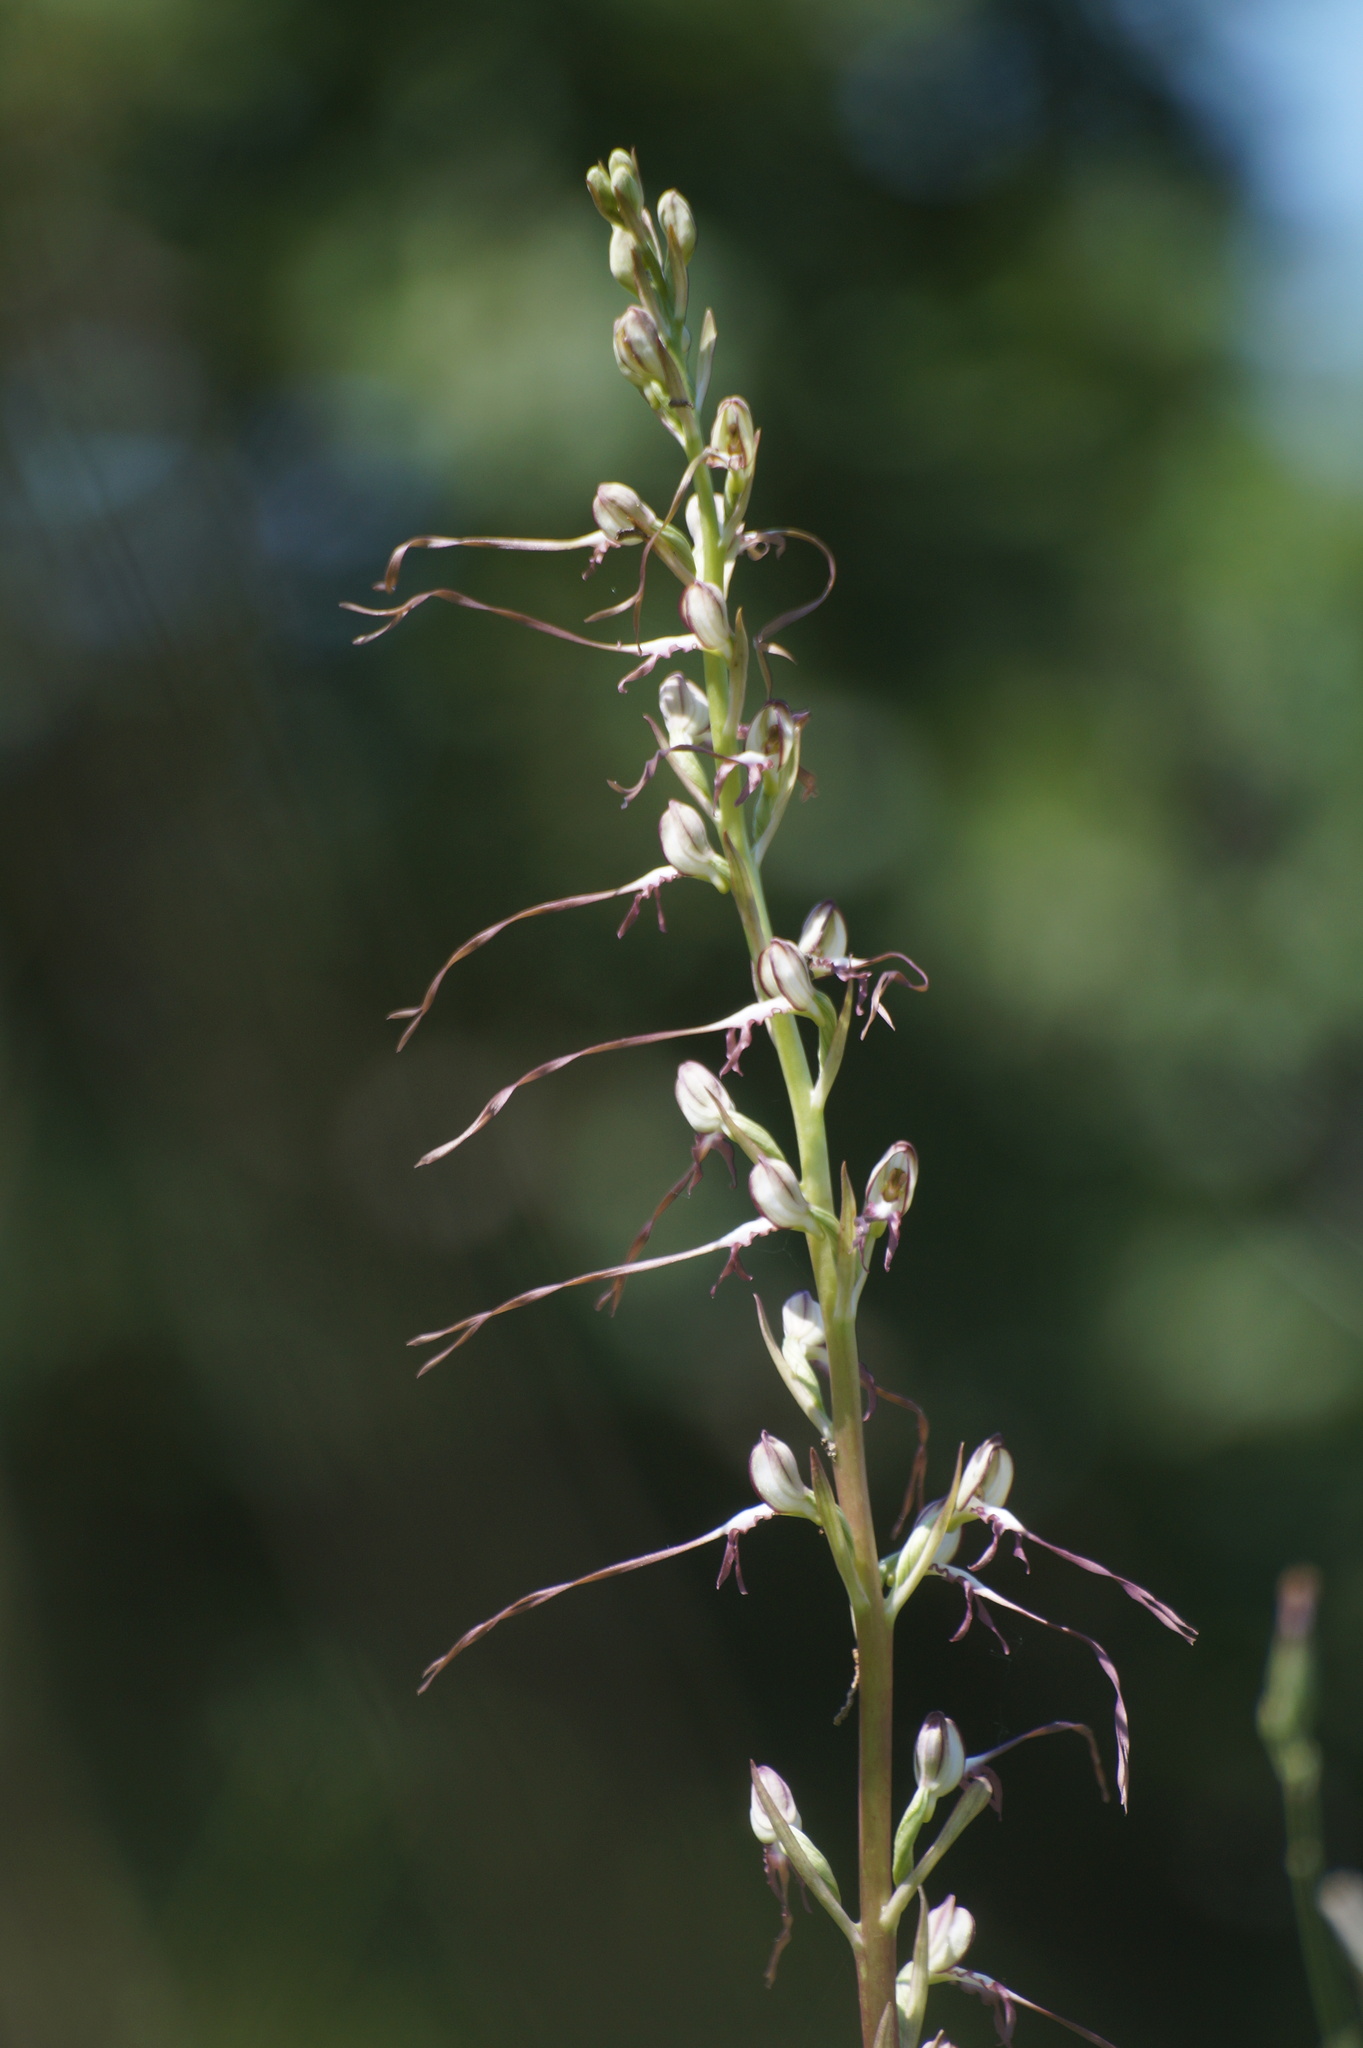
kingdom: Plantae
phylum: Tracheophyta
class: Liliopsida
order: Asparagales
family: Orchidaceae
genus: Himantoglossum
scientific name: Himantoglossum caprinum
